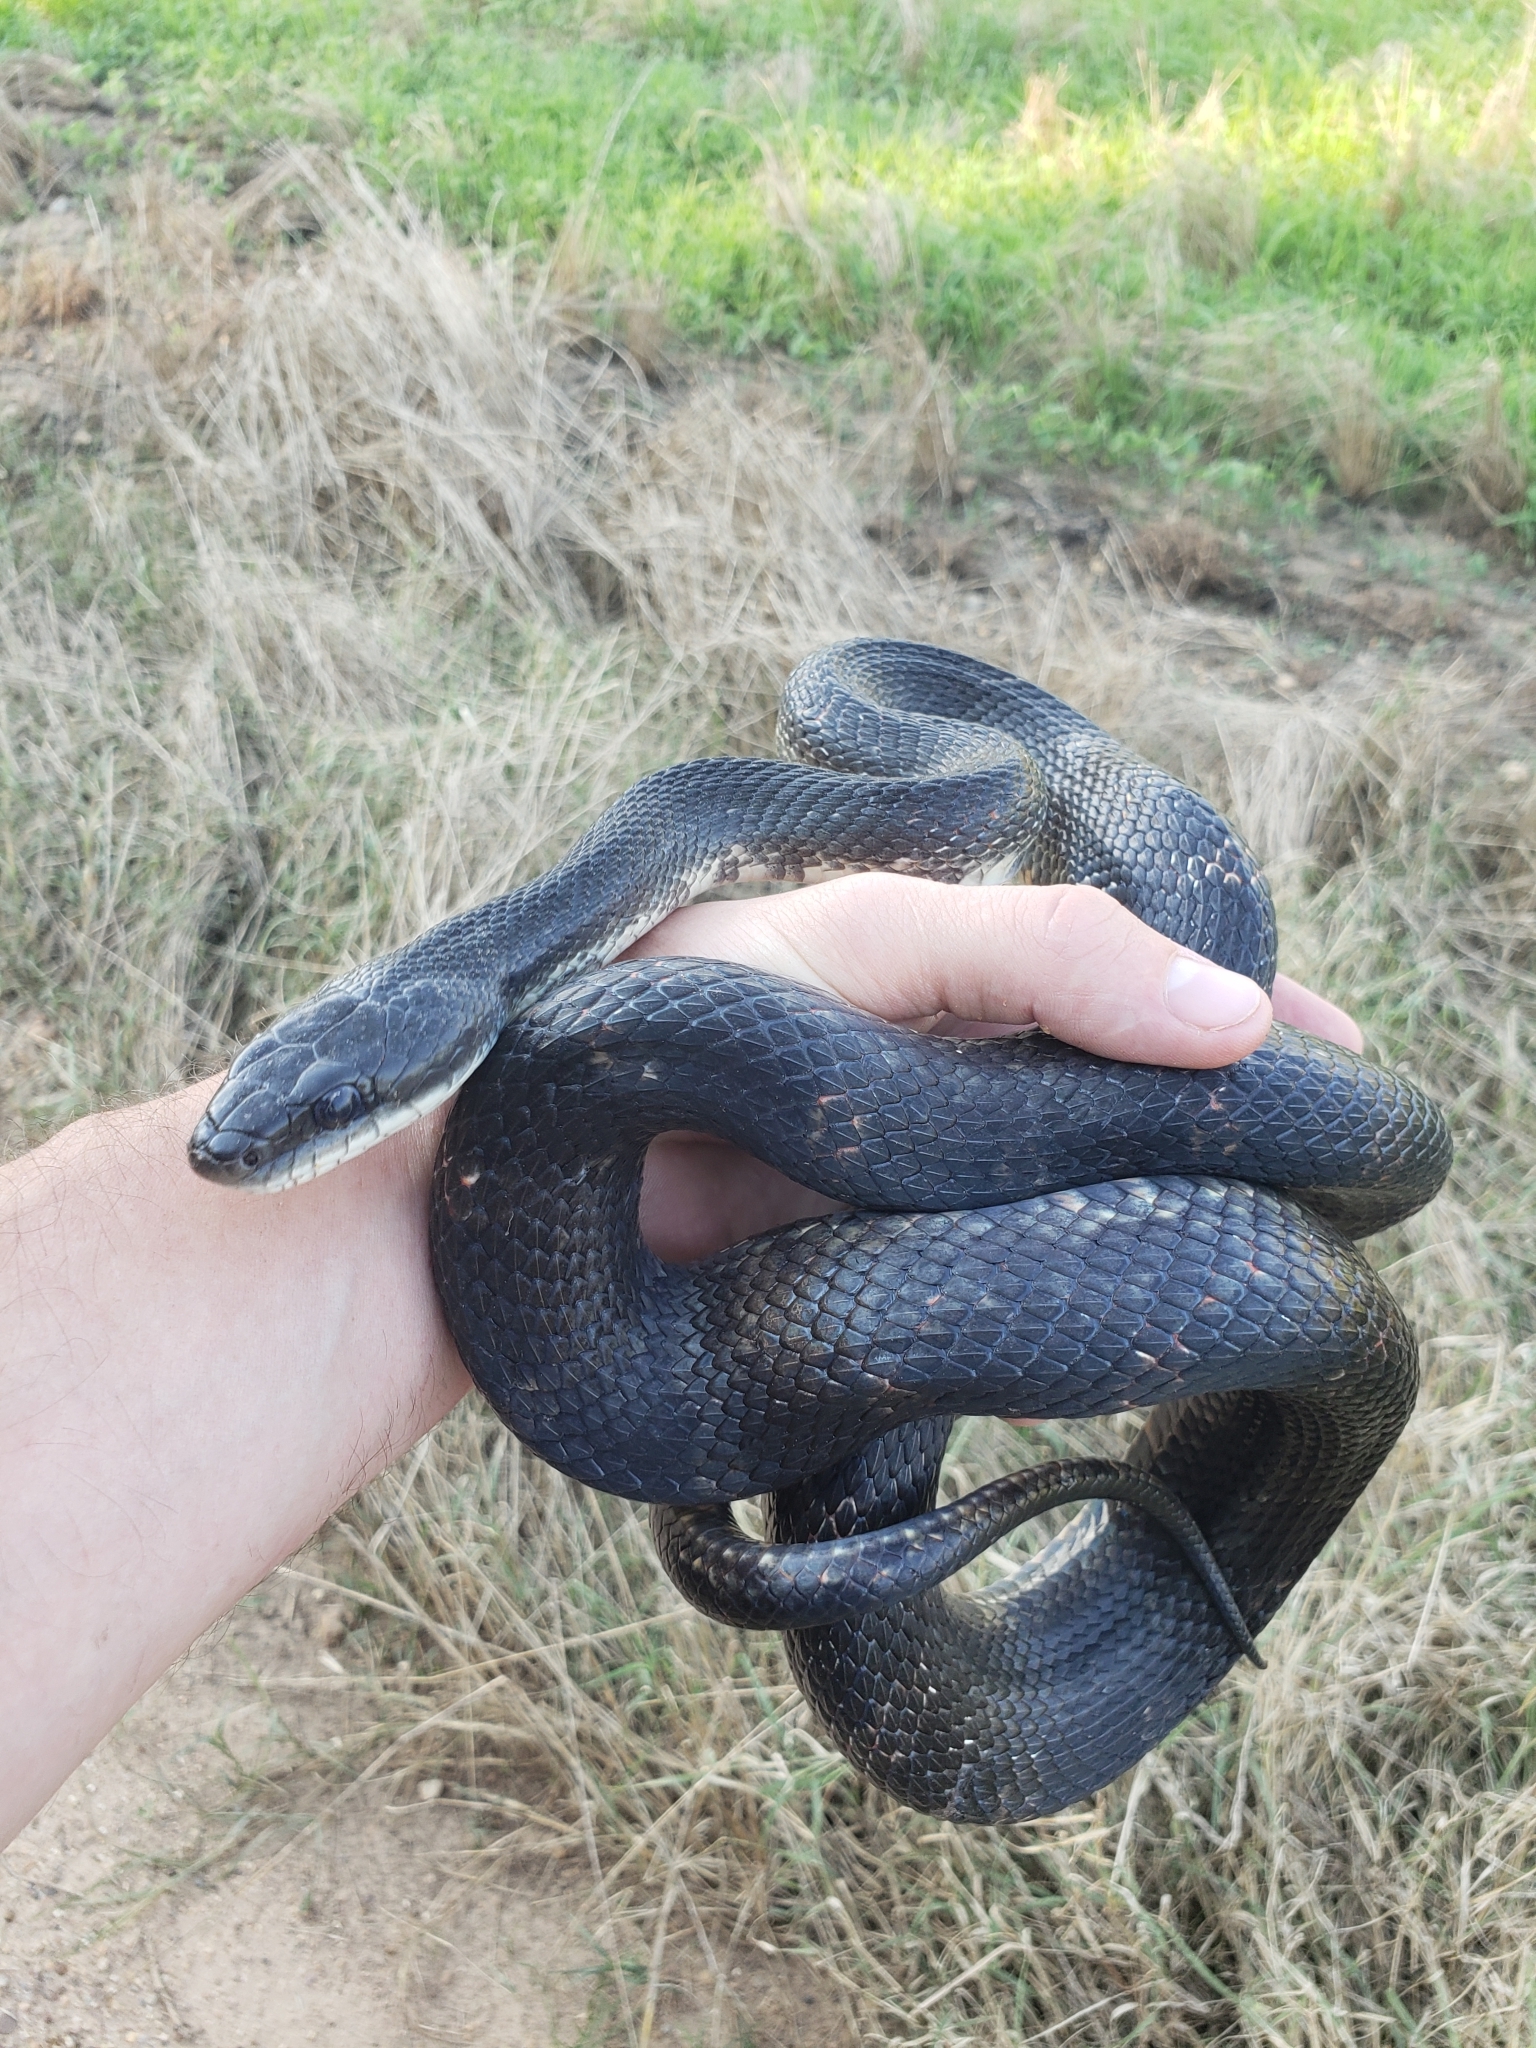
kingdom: Animalia
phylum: Chordata
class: Squamata
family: Colubridae
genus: Pantherophis
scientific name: Pantherophis obsoletus
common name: Black rat snake
